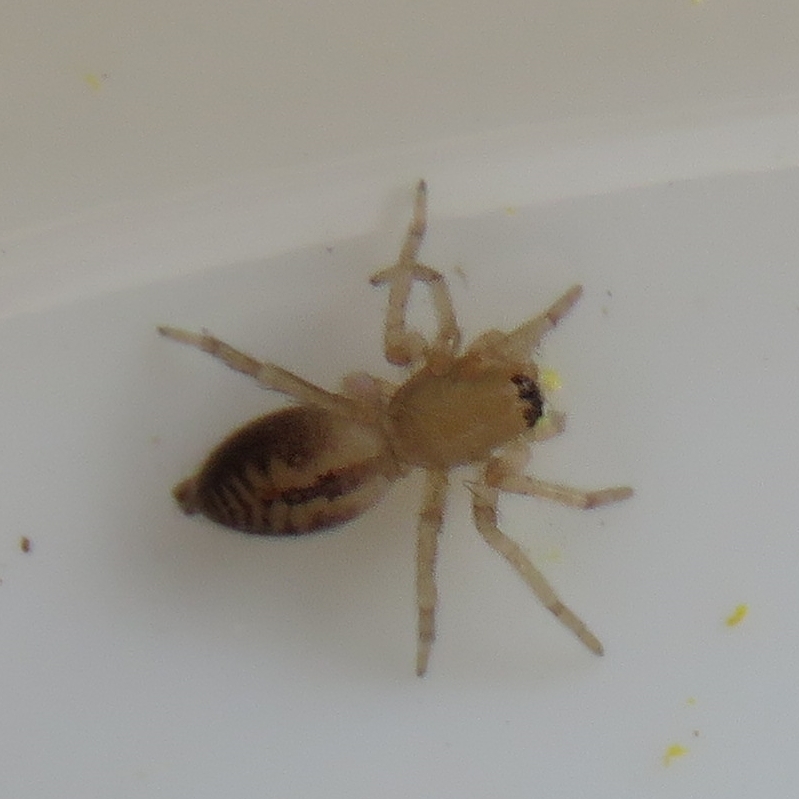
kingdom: Animalia
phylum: Arthropoda
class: Arachnida
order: Araneae
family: Clubionidae
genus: Clubiona
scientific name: Clubiona comta
